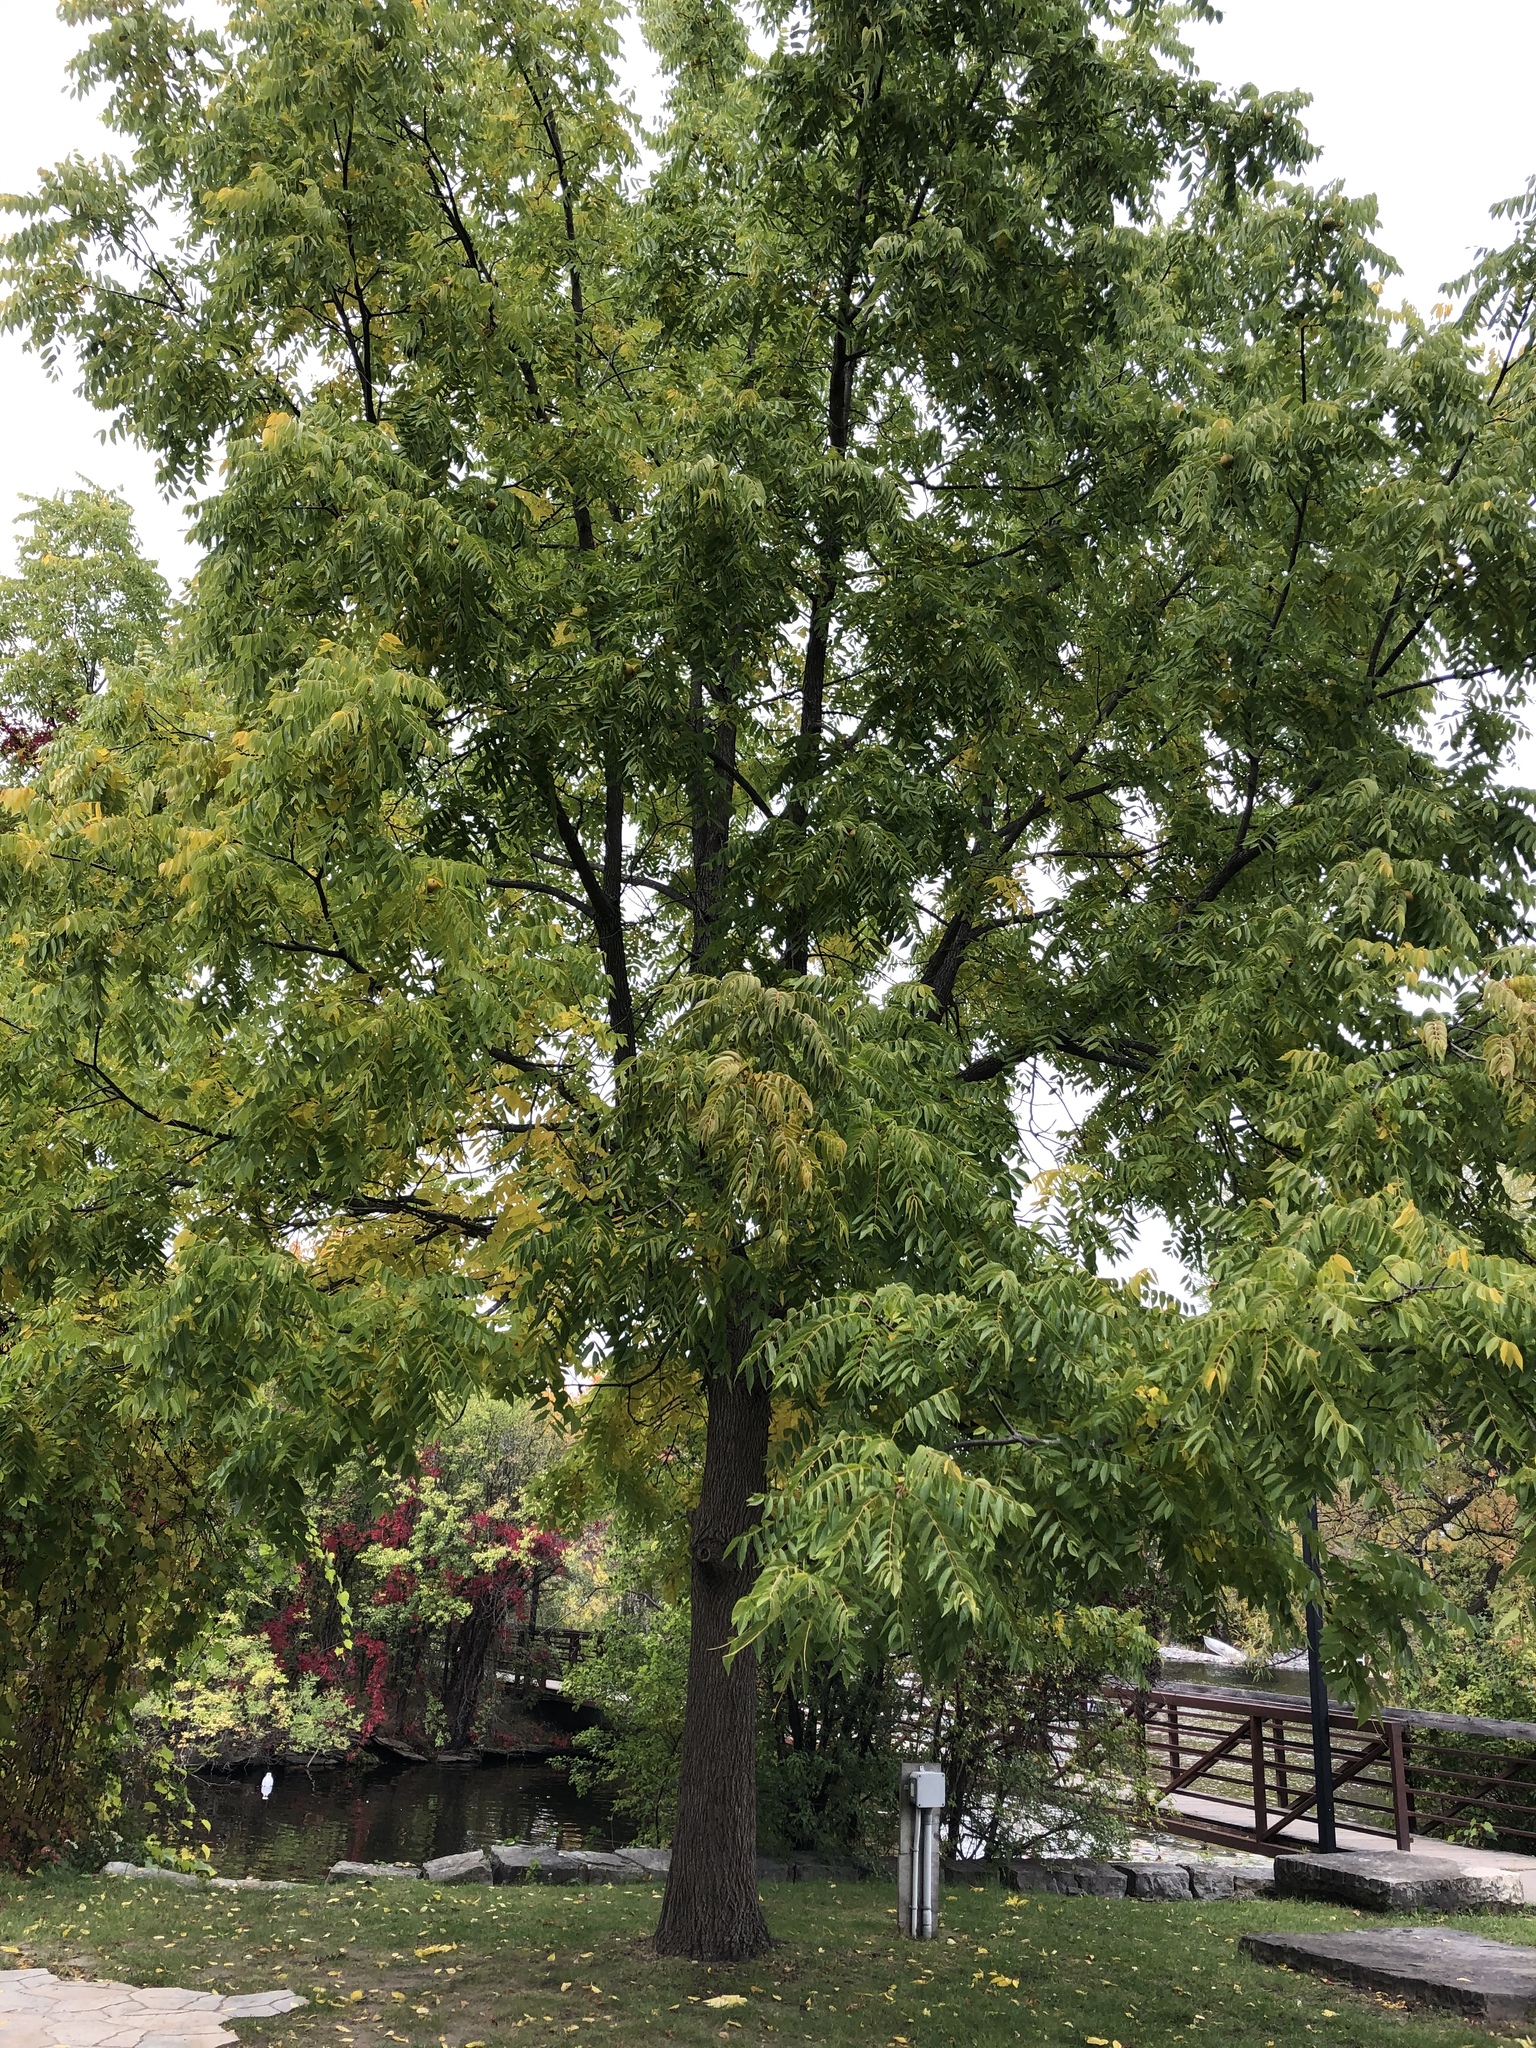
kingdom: Plantae
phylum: Tracheophyta
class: Magnoliopsida
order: Fagales
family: Juglandaceae
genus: Juglans
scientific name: Juglans nigra
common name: Black walnut
